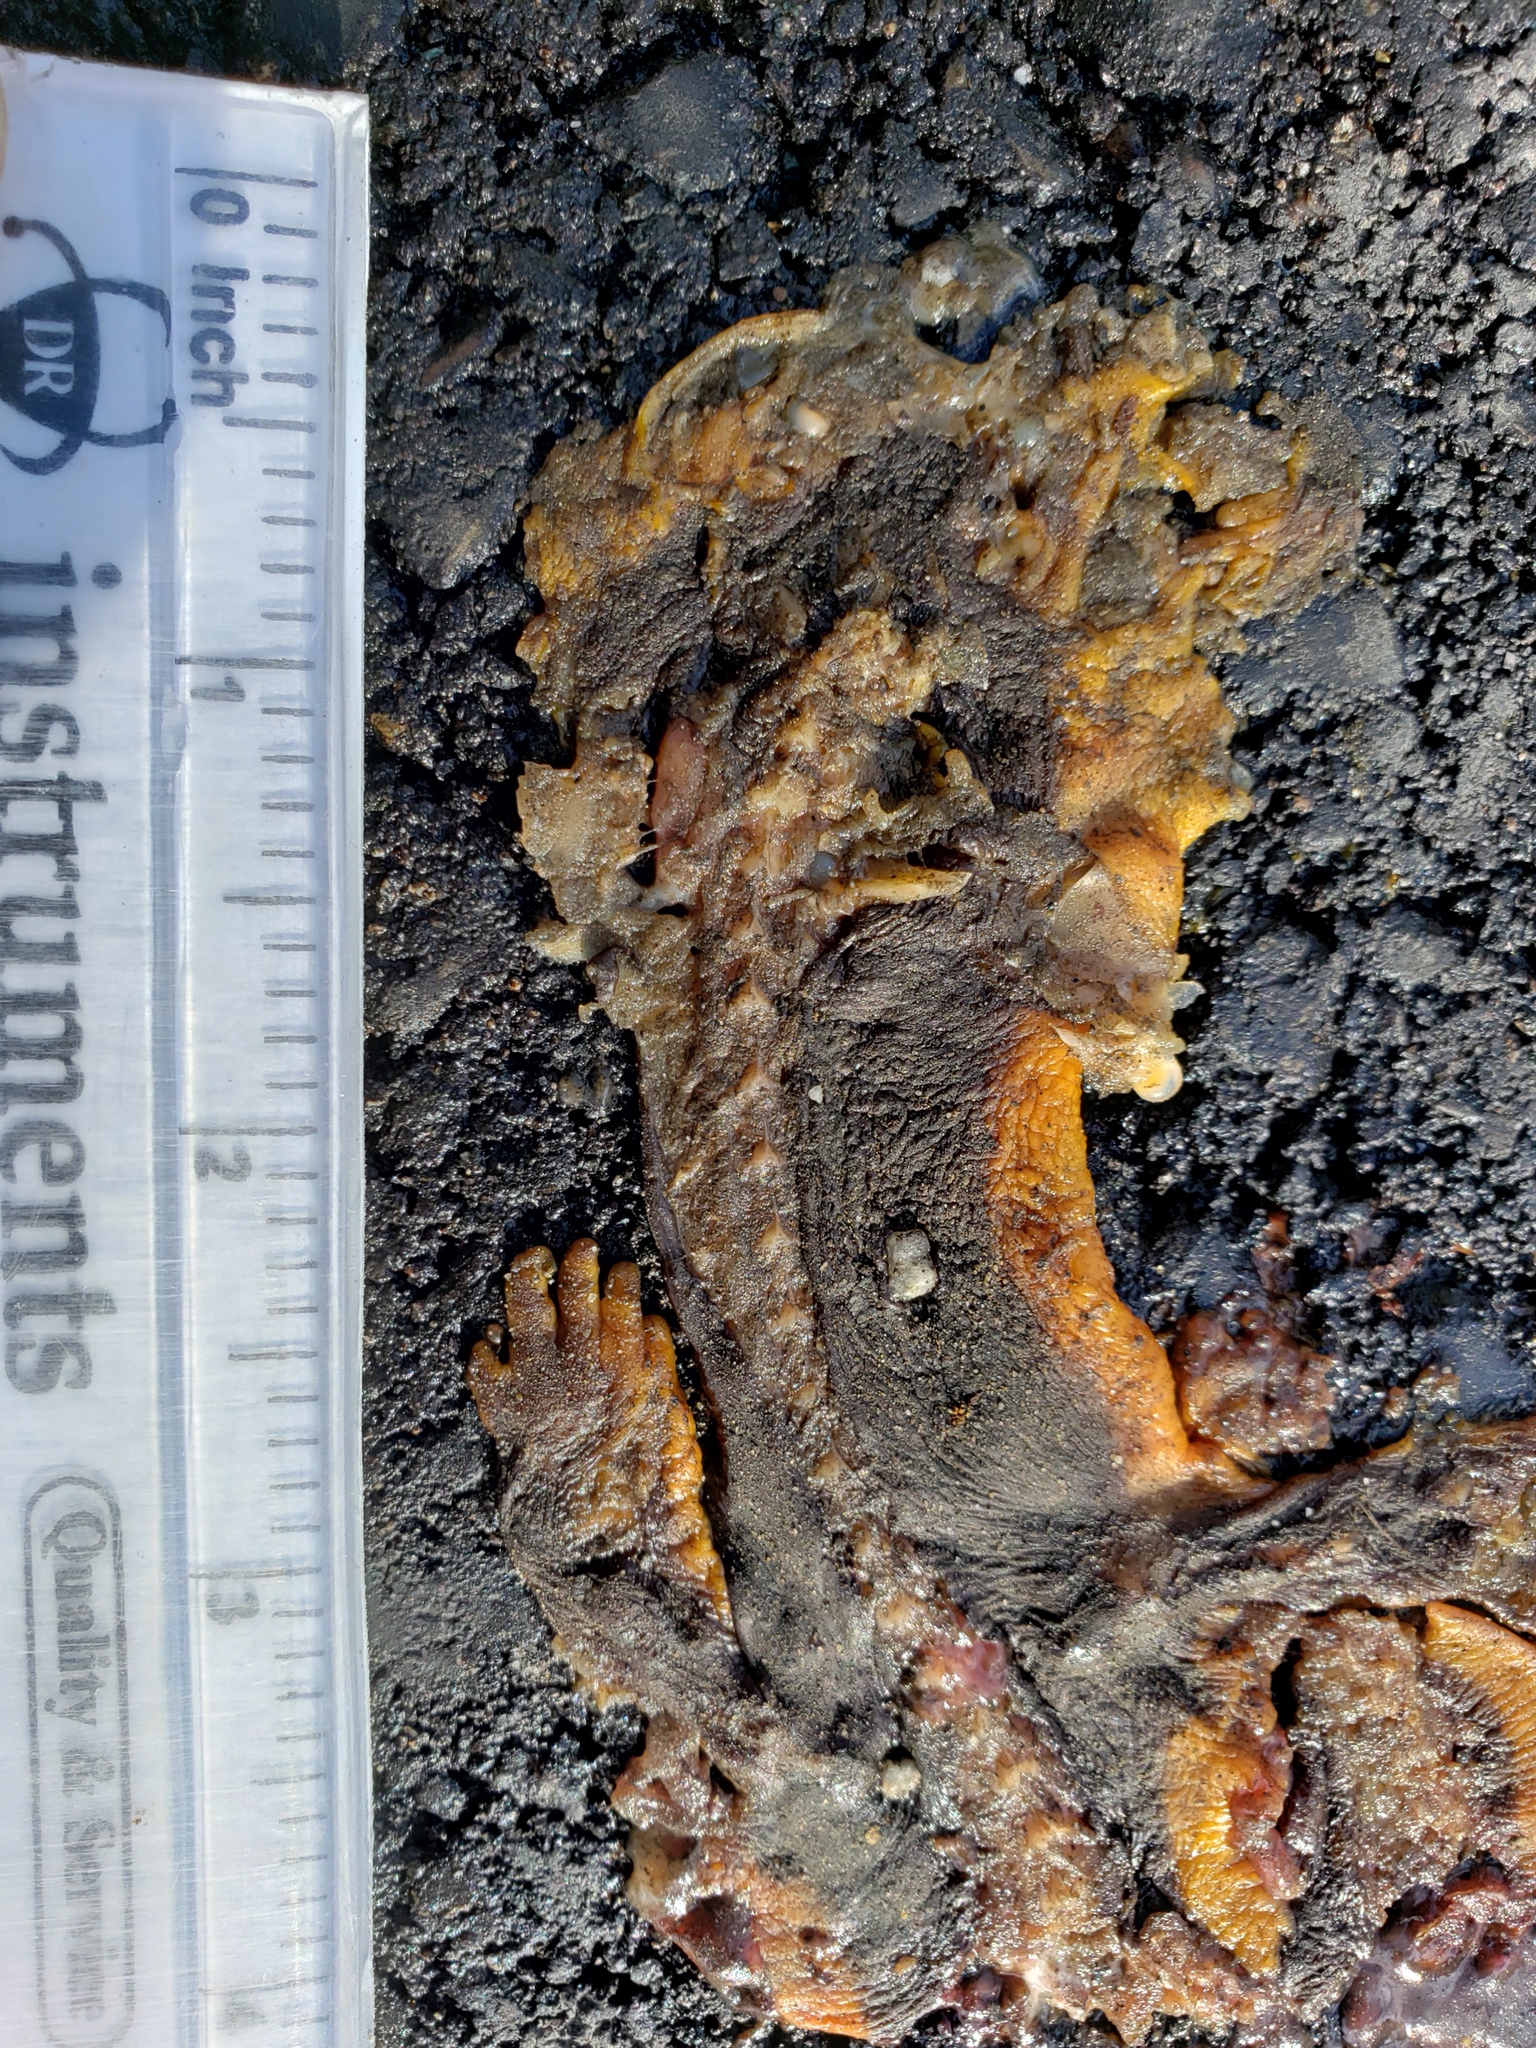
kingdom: Animalia
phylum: Chordata
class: Amphibia
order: Caudata
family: Salamandridae
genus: Taricha
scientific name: Taricha
